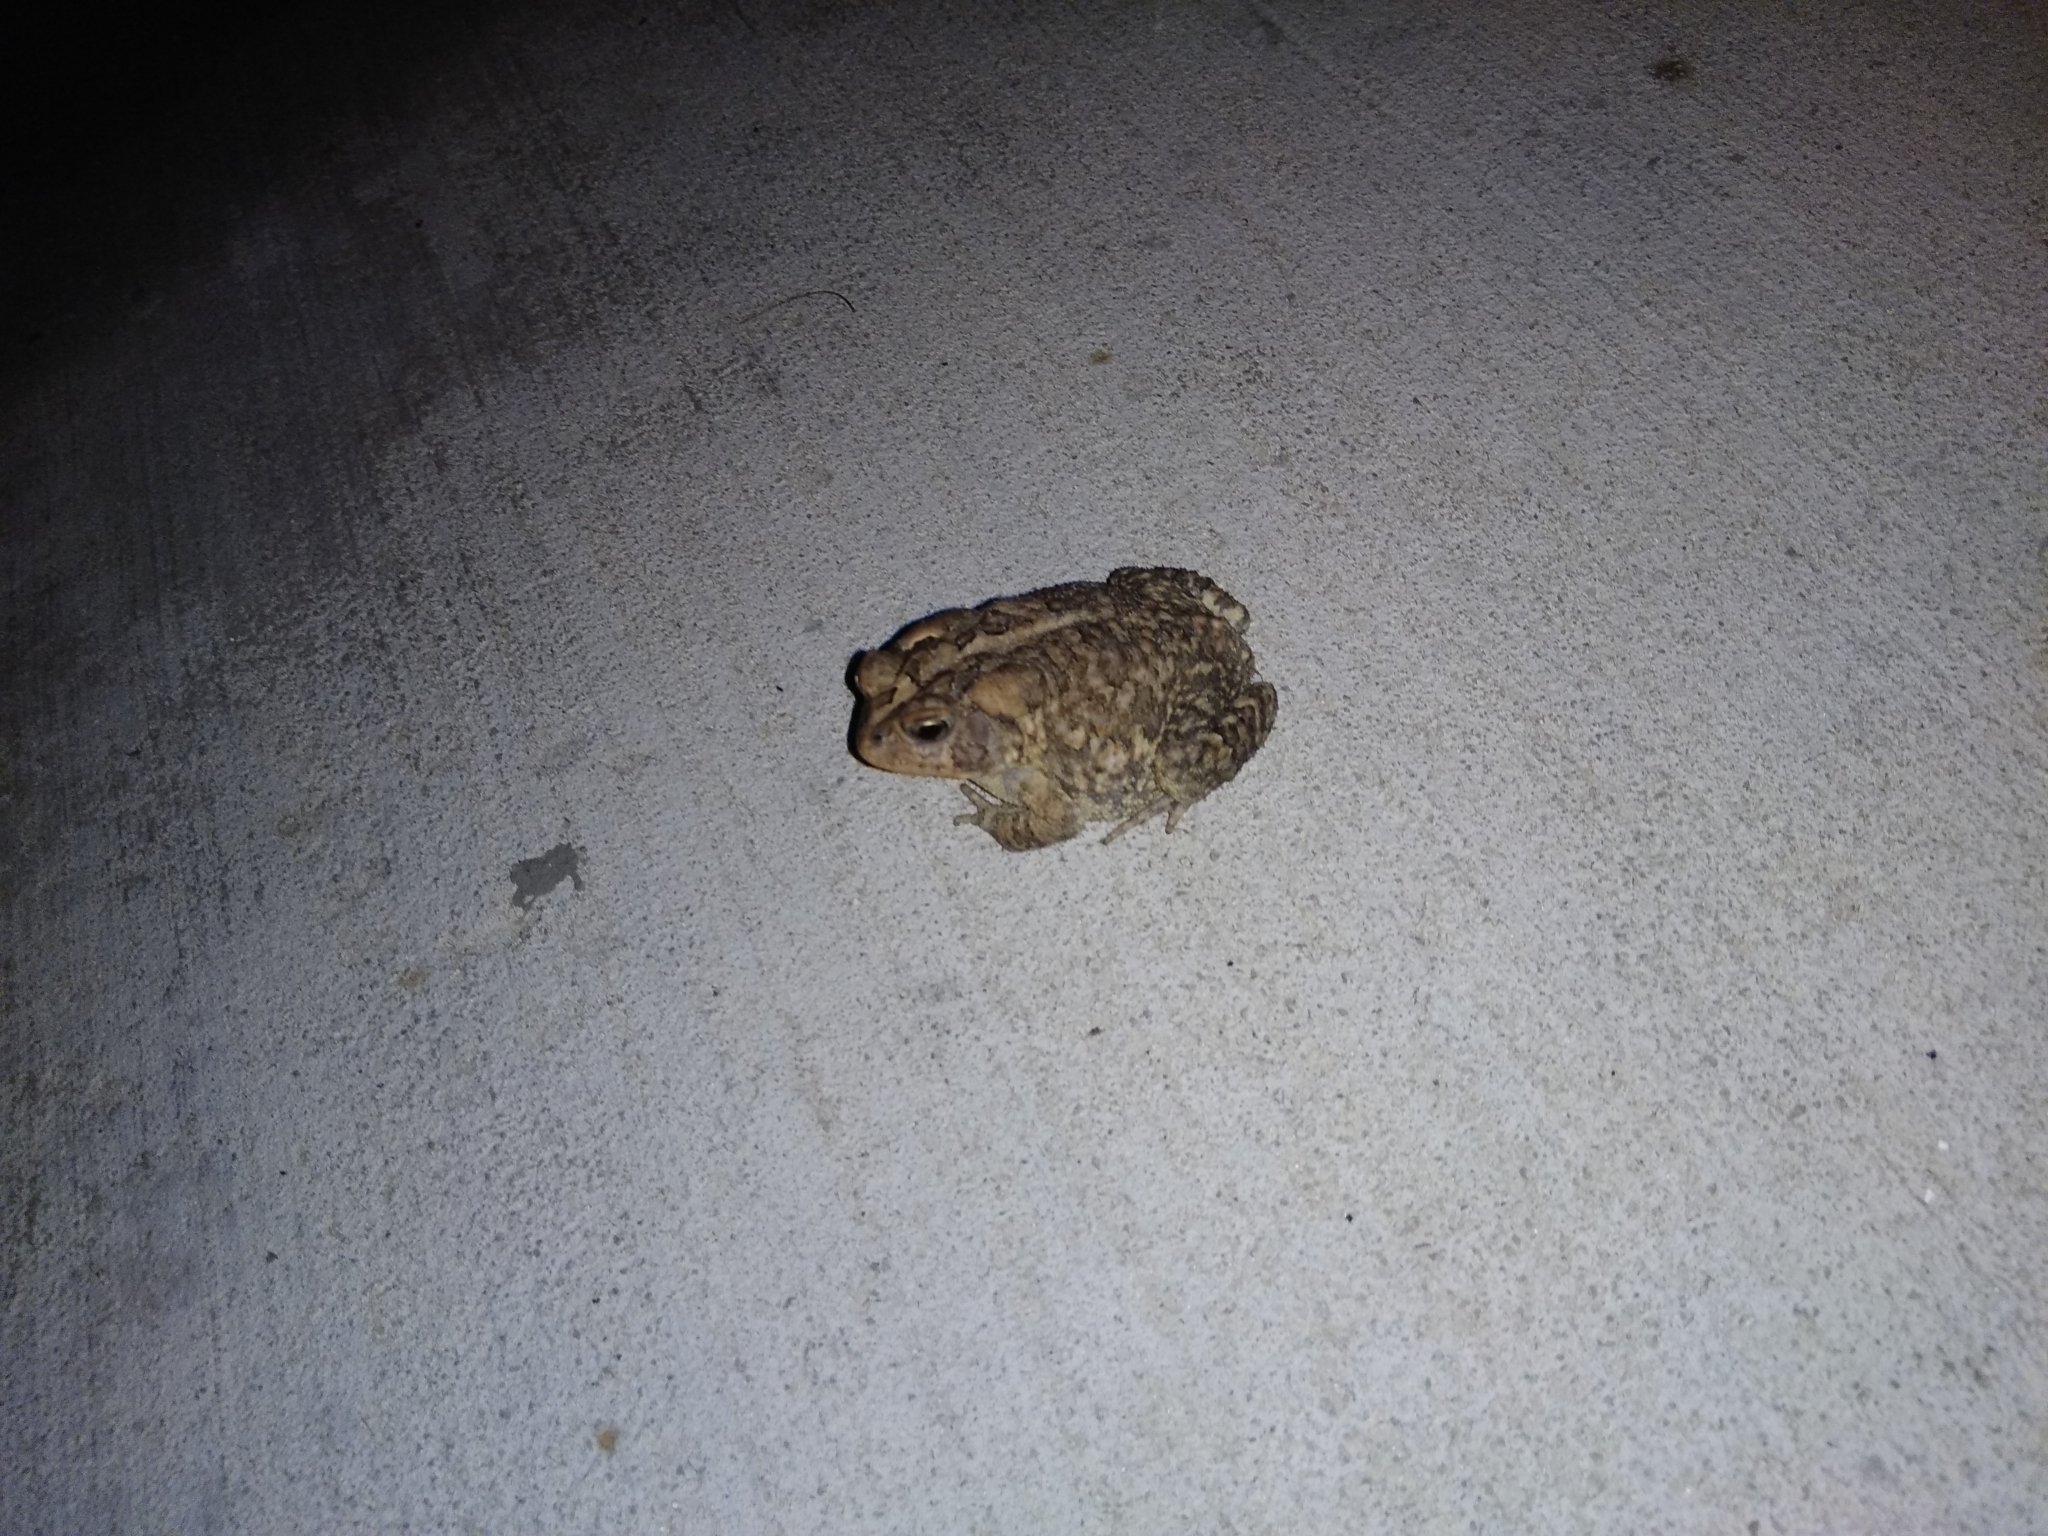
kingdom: Animalia
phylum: Chordata
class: Amphibia
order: Anura
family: Bufonidae
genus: Anaxyrus
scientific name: Anaxyrus terrestris
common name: Southern toad
